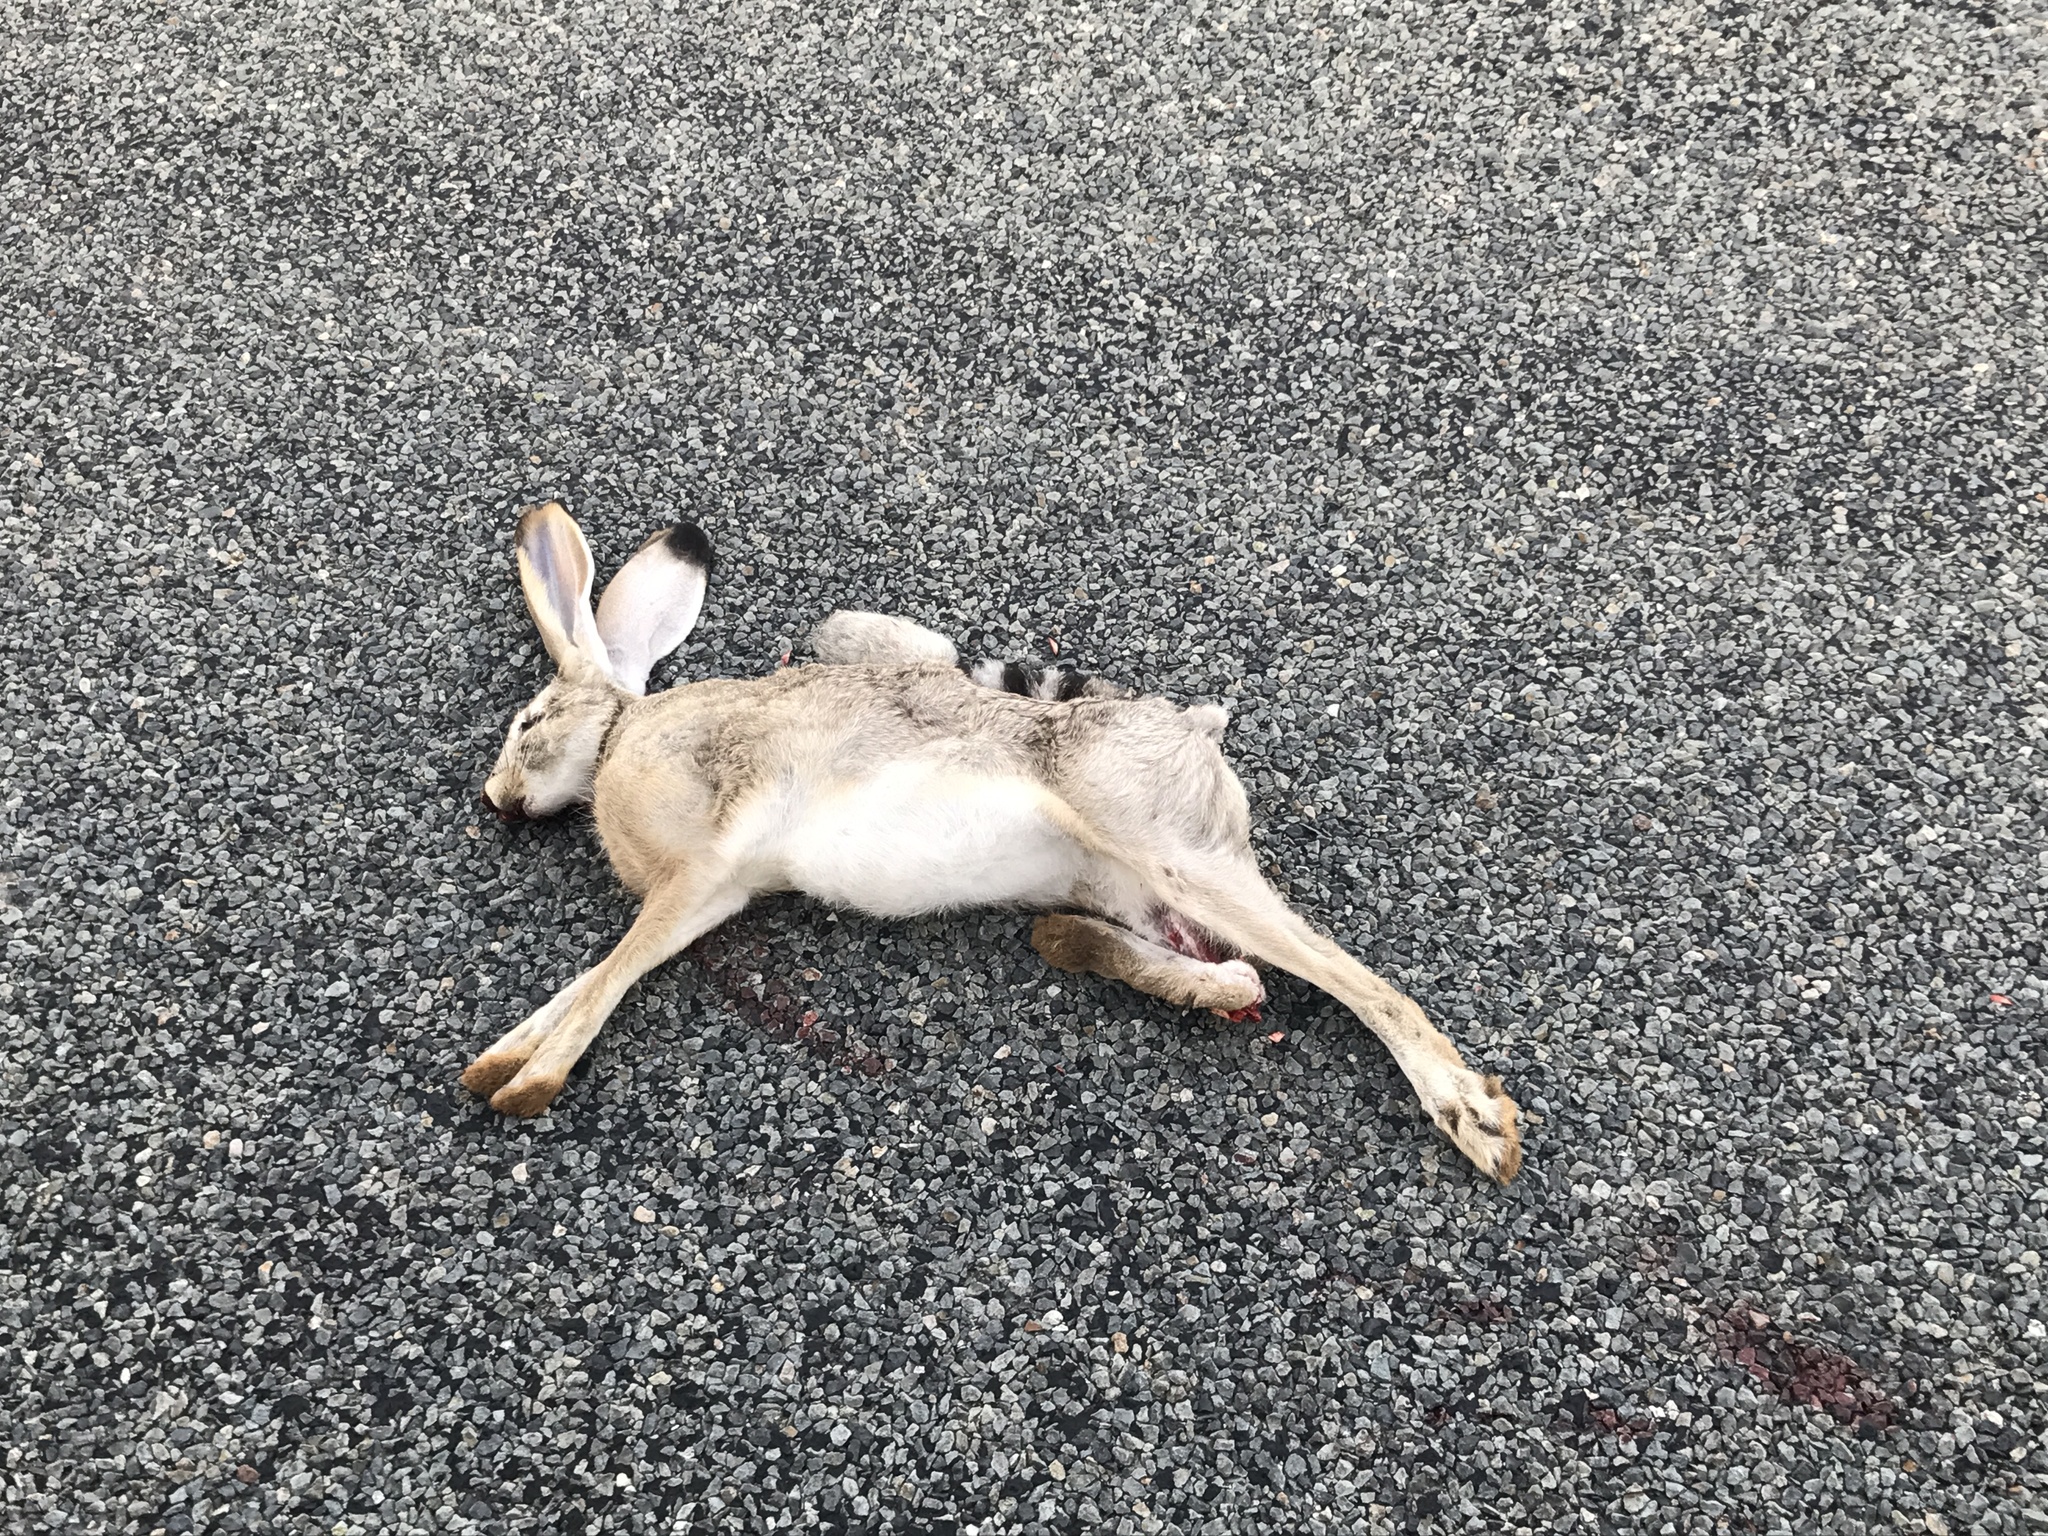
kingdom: Animalia
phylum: Chordata
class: Mammalia
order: Lagomorpha
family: Leporidae
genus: Lepus
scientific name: Lepus californicus
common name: Black-tailed jackrabbit
